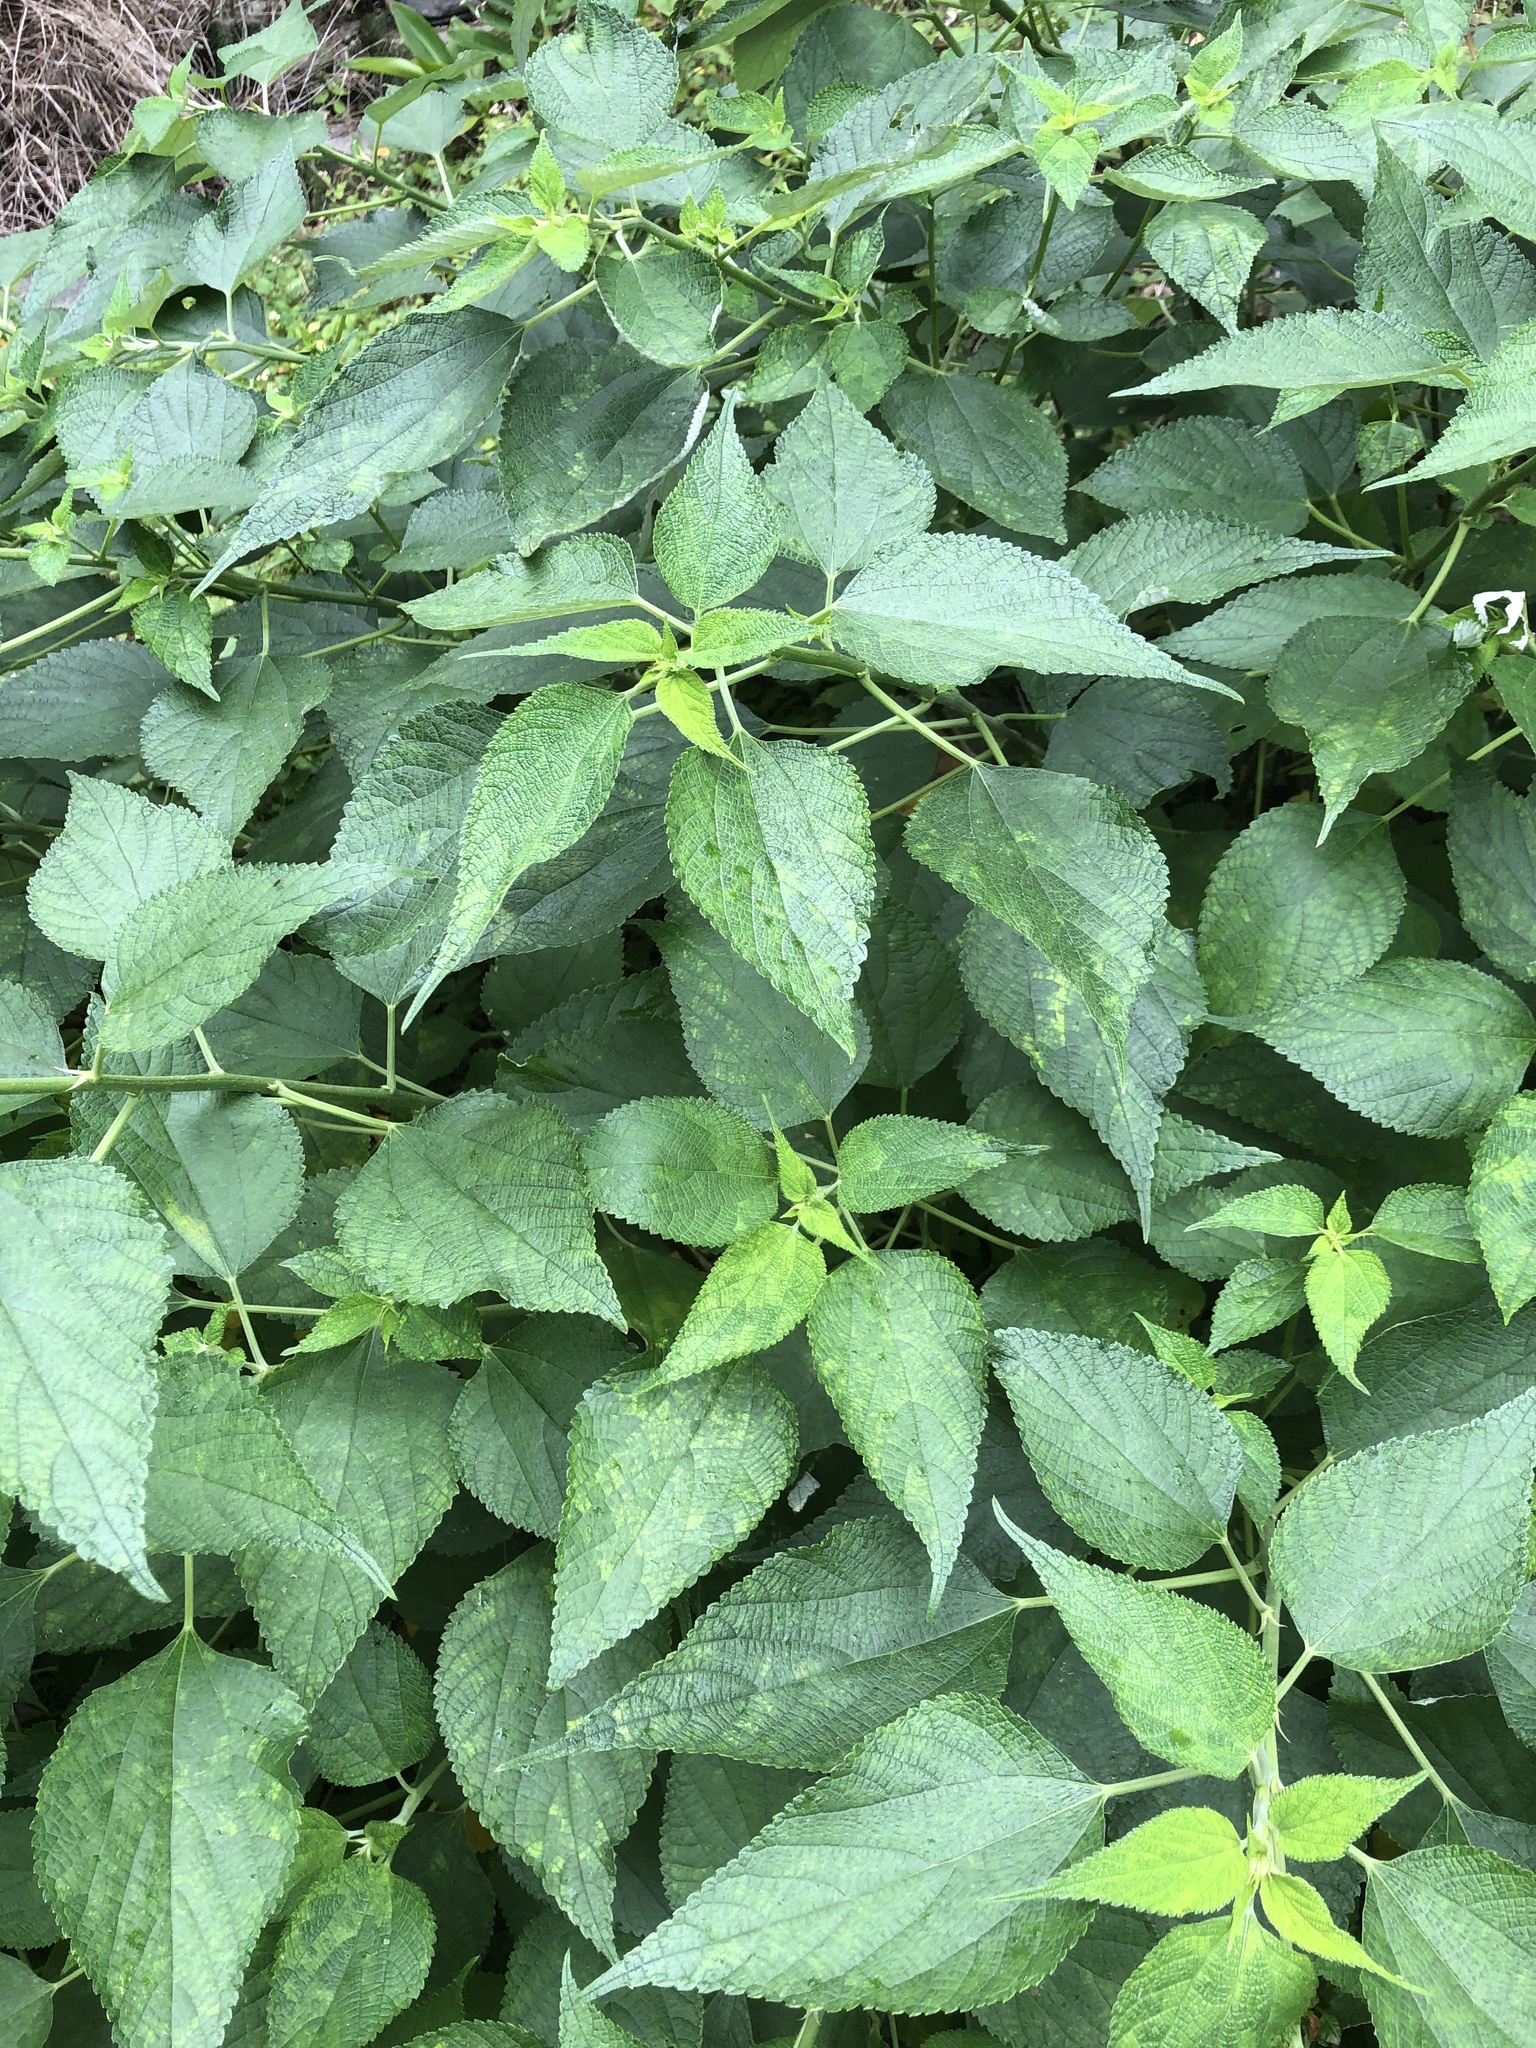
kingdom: Plantae
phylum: Tracheophyta
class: Magnoliopsida
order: Rosales
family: Urticaceae
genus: Boehmeria
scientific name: Boehmeria nivea
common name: Ramie chinese grass
